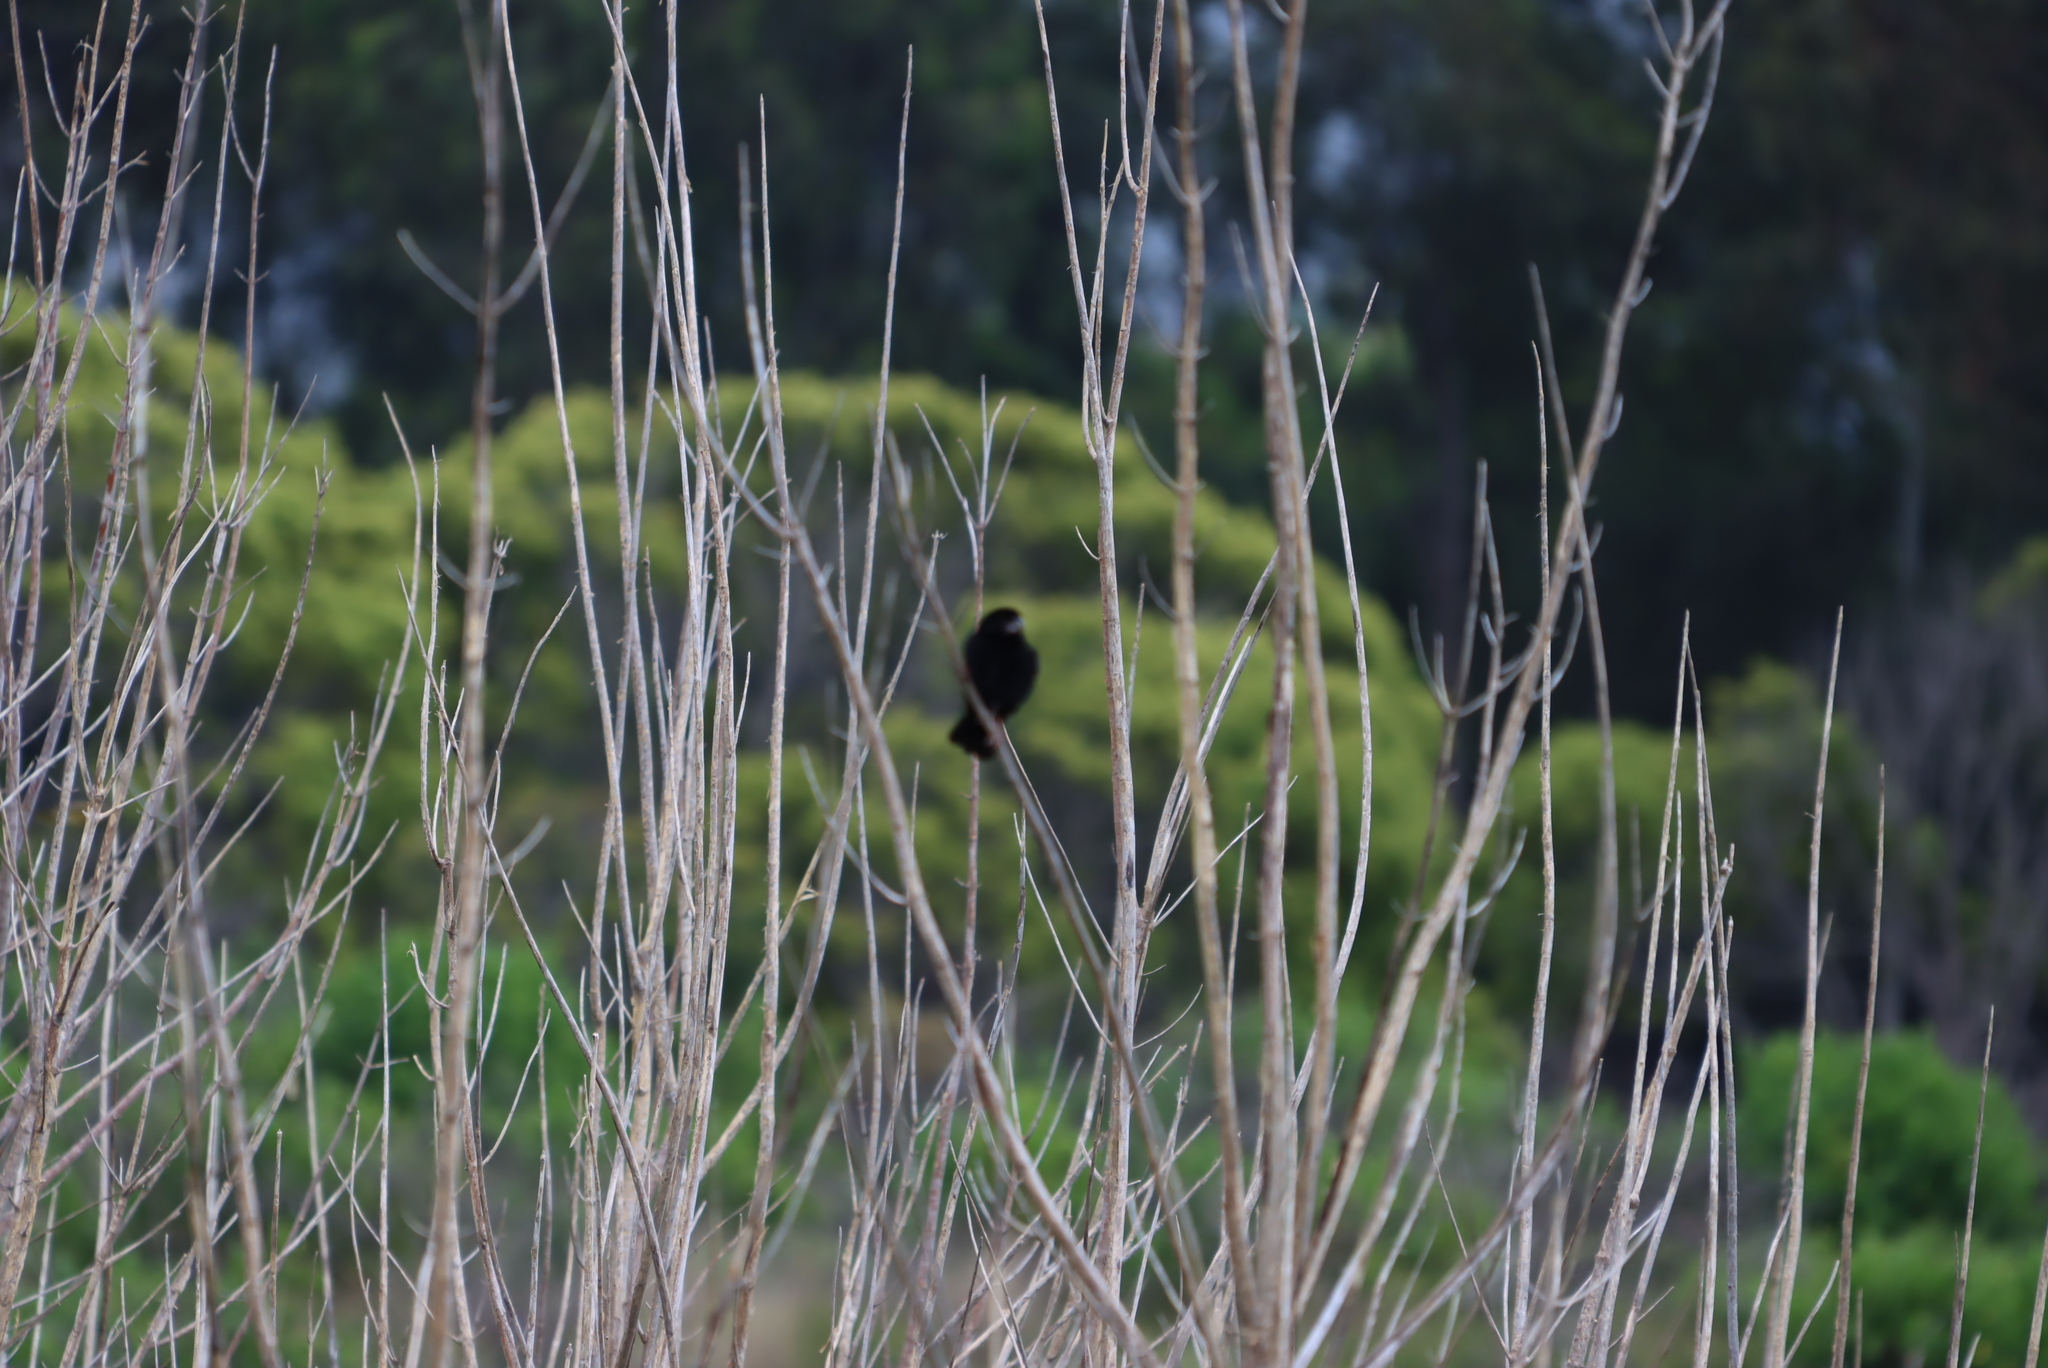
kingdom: Animalia
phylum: Chordata
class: Aves
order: Passeriformes
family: Ploceidae
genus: Euplectes
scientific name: Euplectes capensis
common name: Yellow bishop
